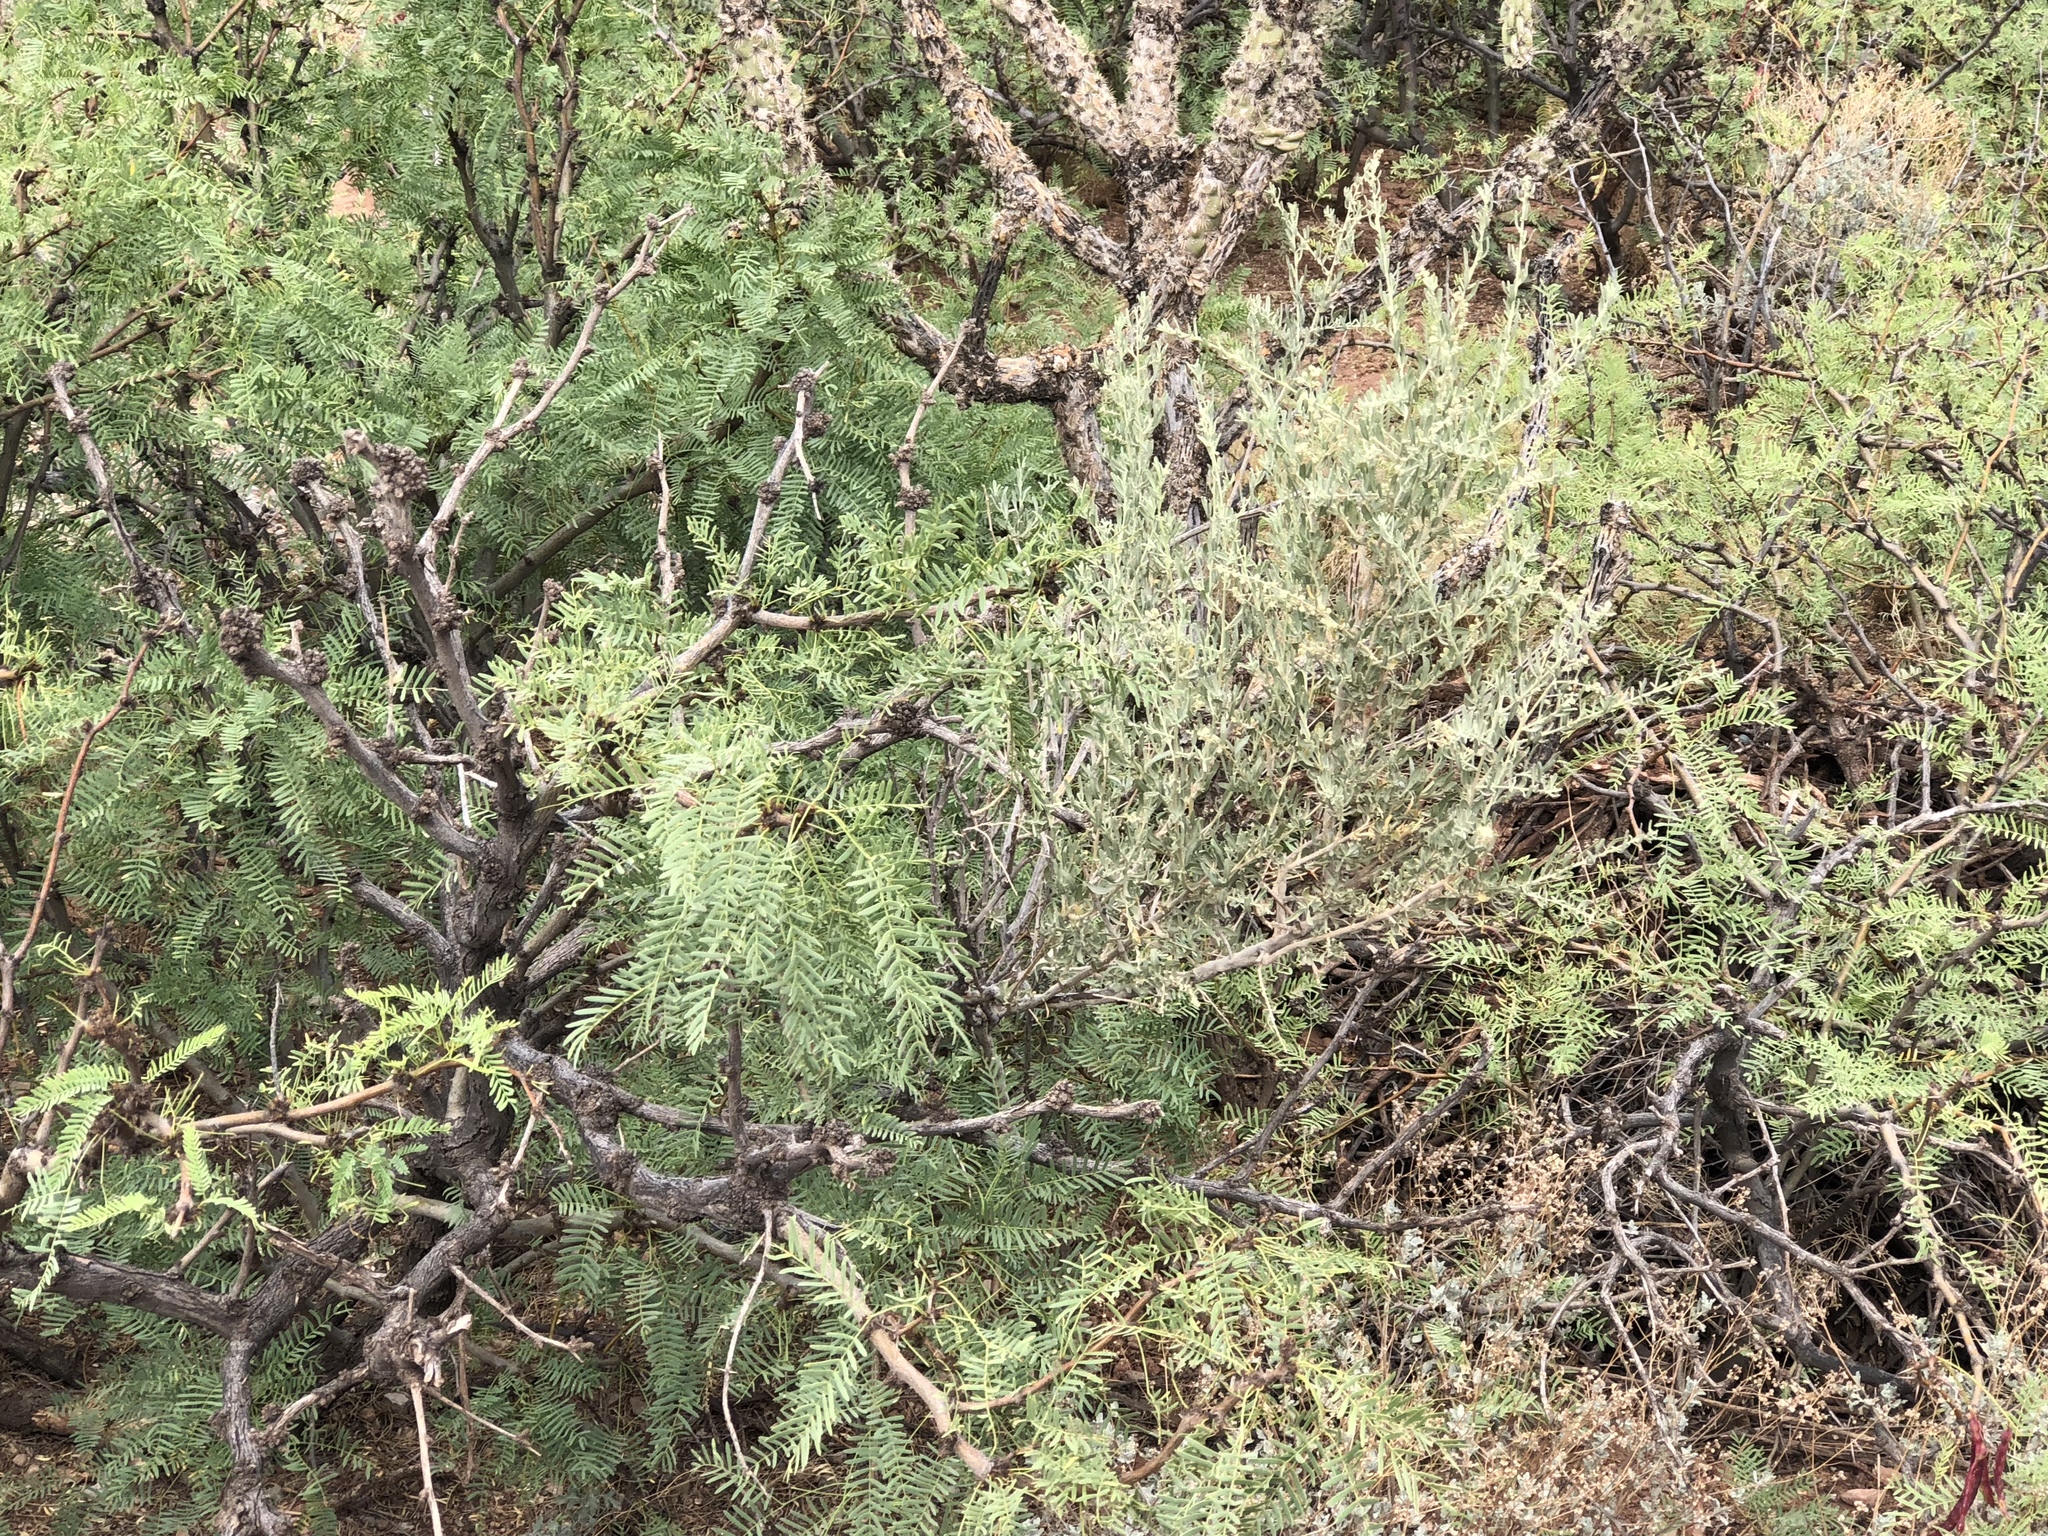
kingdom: Plantae
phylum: Tracheophyta
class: Magnoliopsida
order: Fabales
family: Fabaceae
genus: Prosopis
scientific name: Prosopis glandulosa
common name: Honey mesquite
